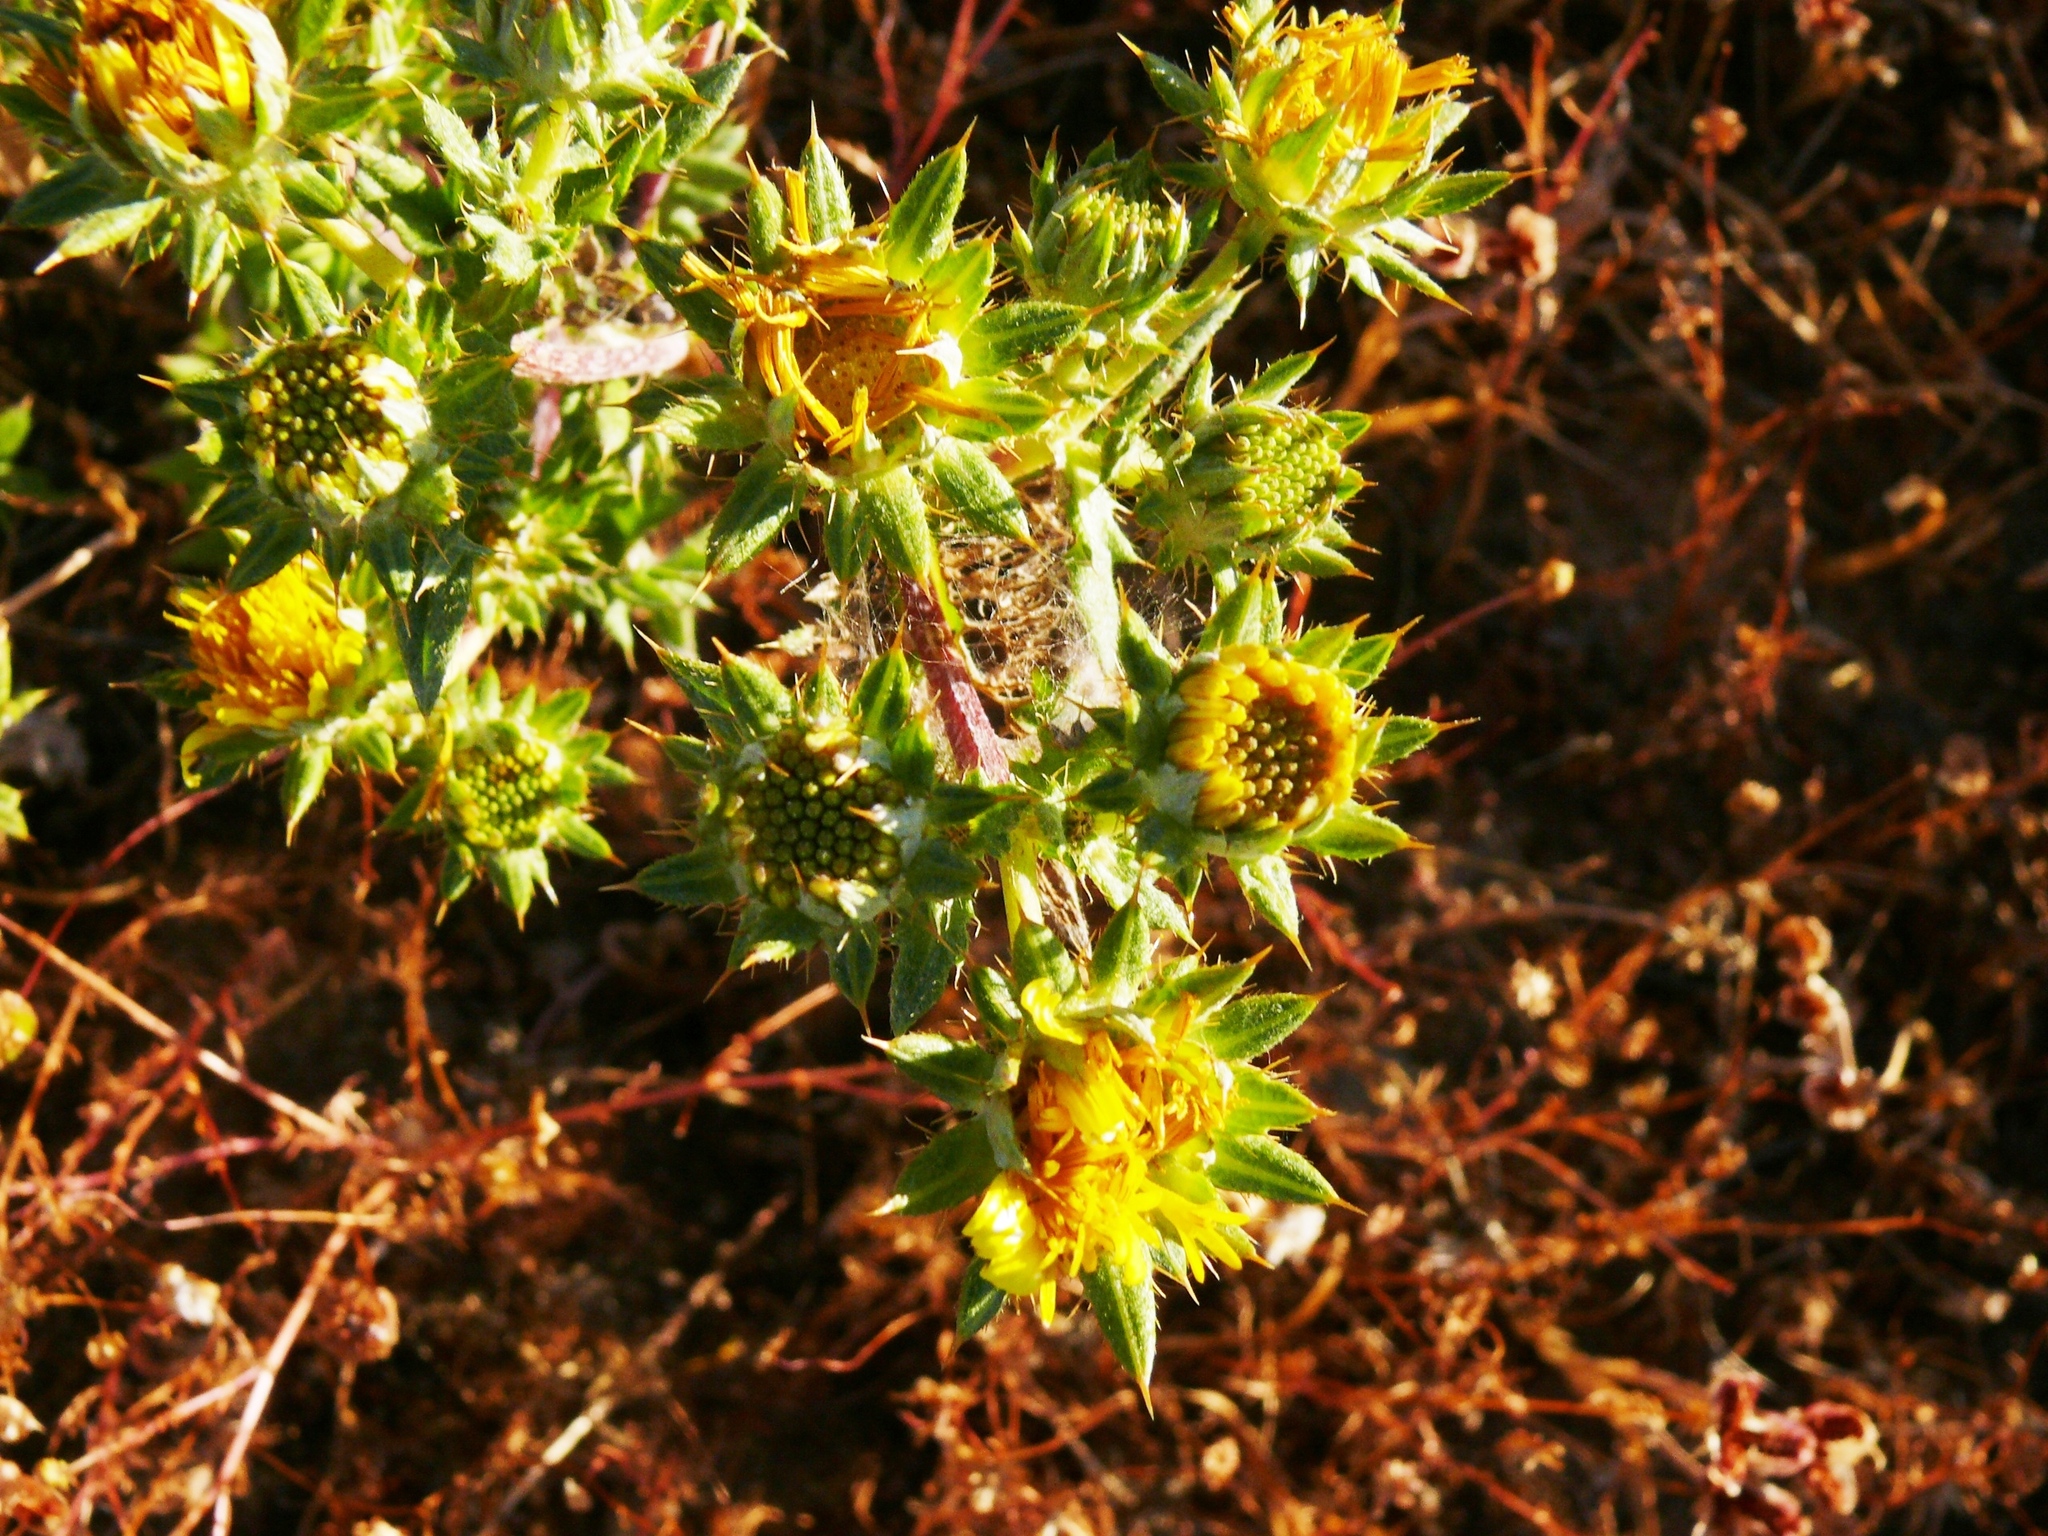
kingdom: Plantae
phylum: Tracheophyta
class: Magnoliopsida
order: Asterales
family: Asteraceae
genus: Berkheya
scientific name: Berkheya pinnatifida
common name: Lobed african thistle
